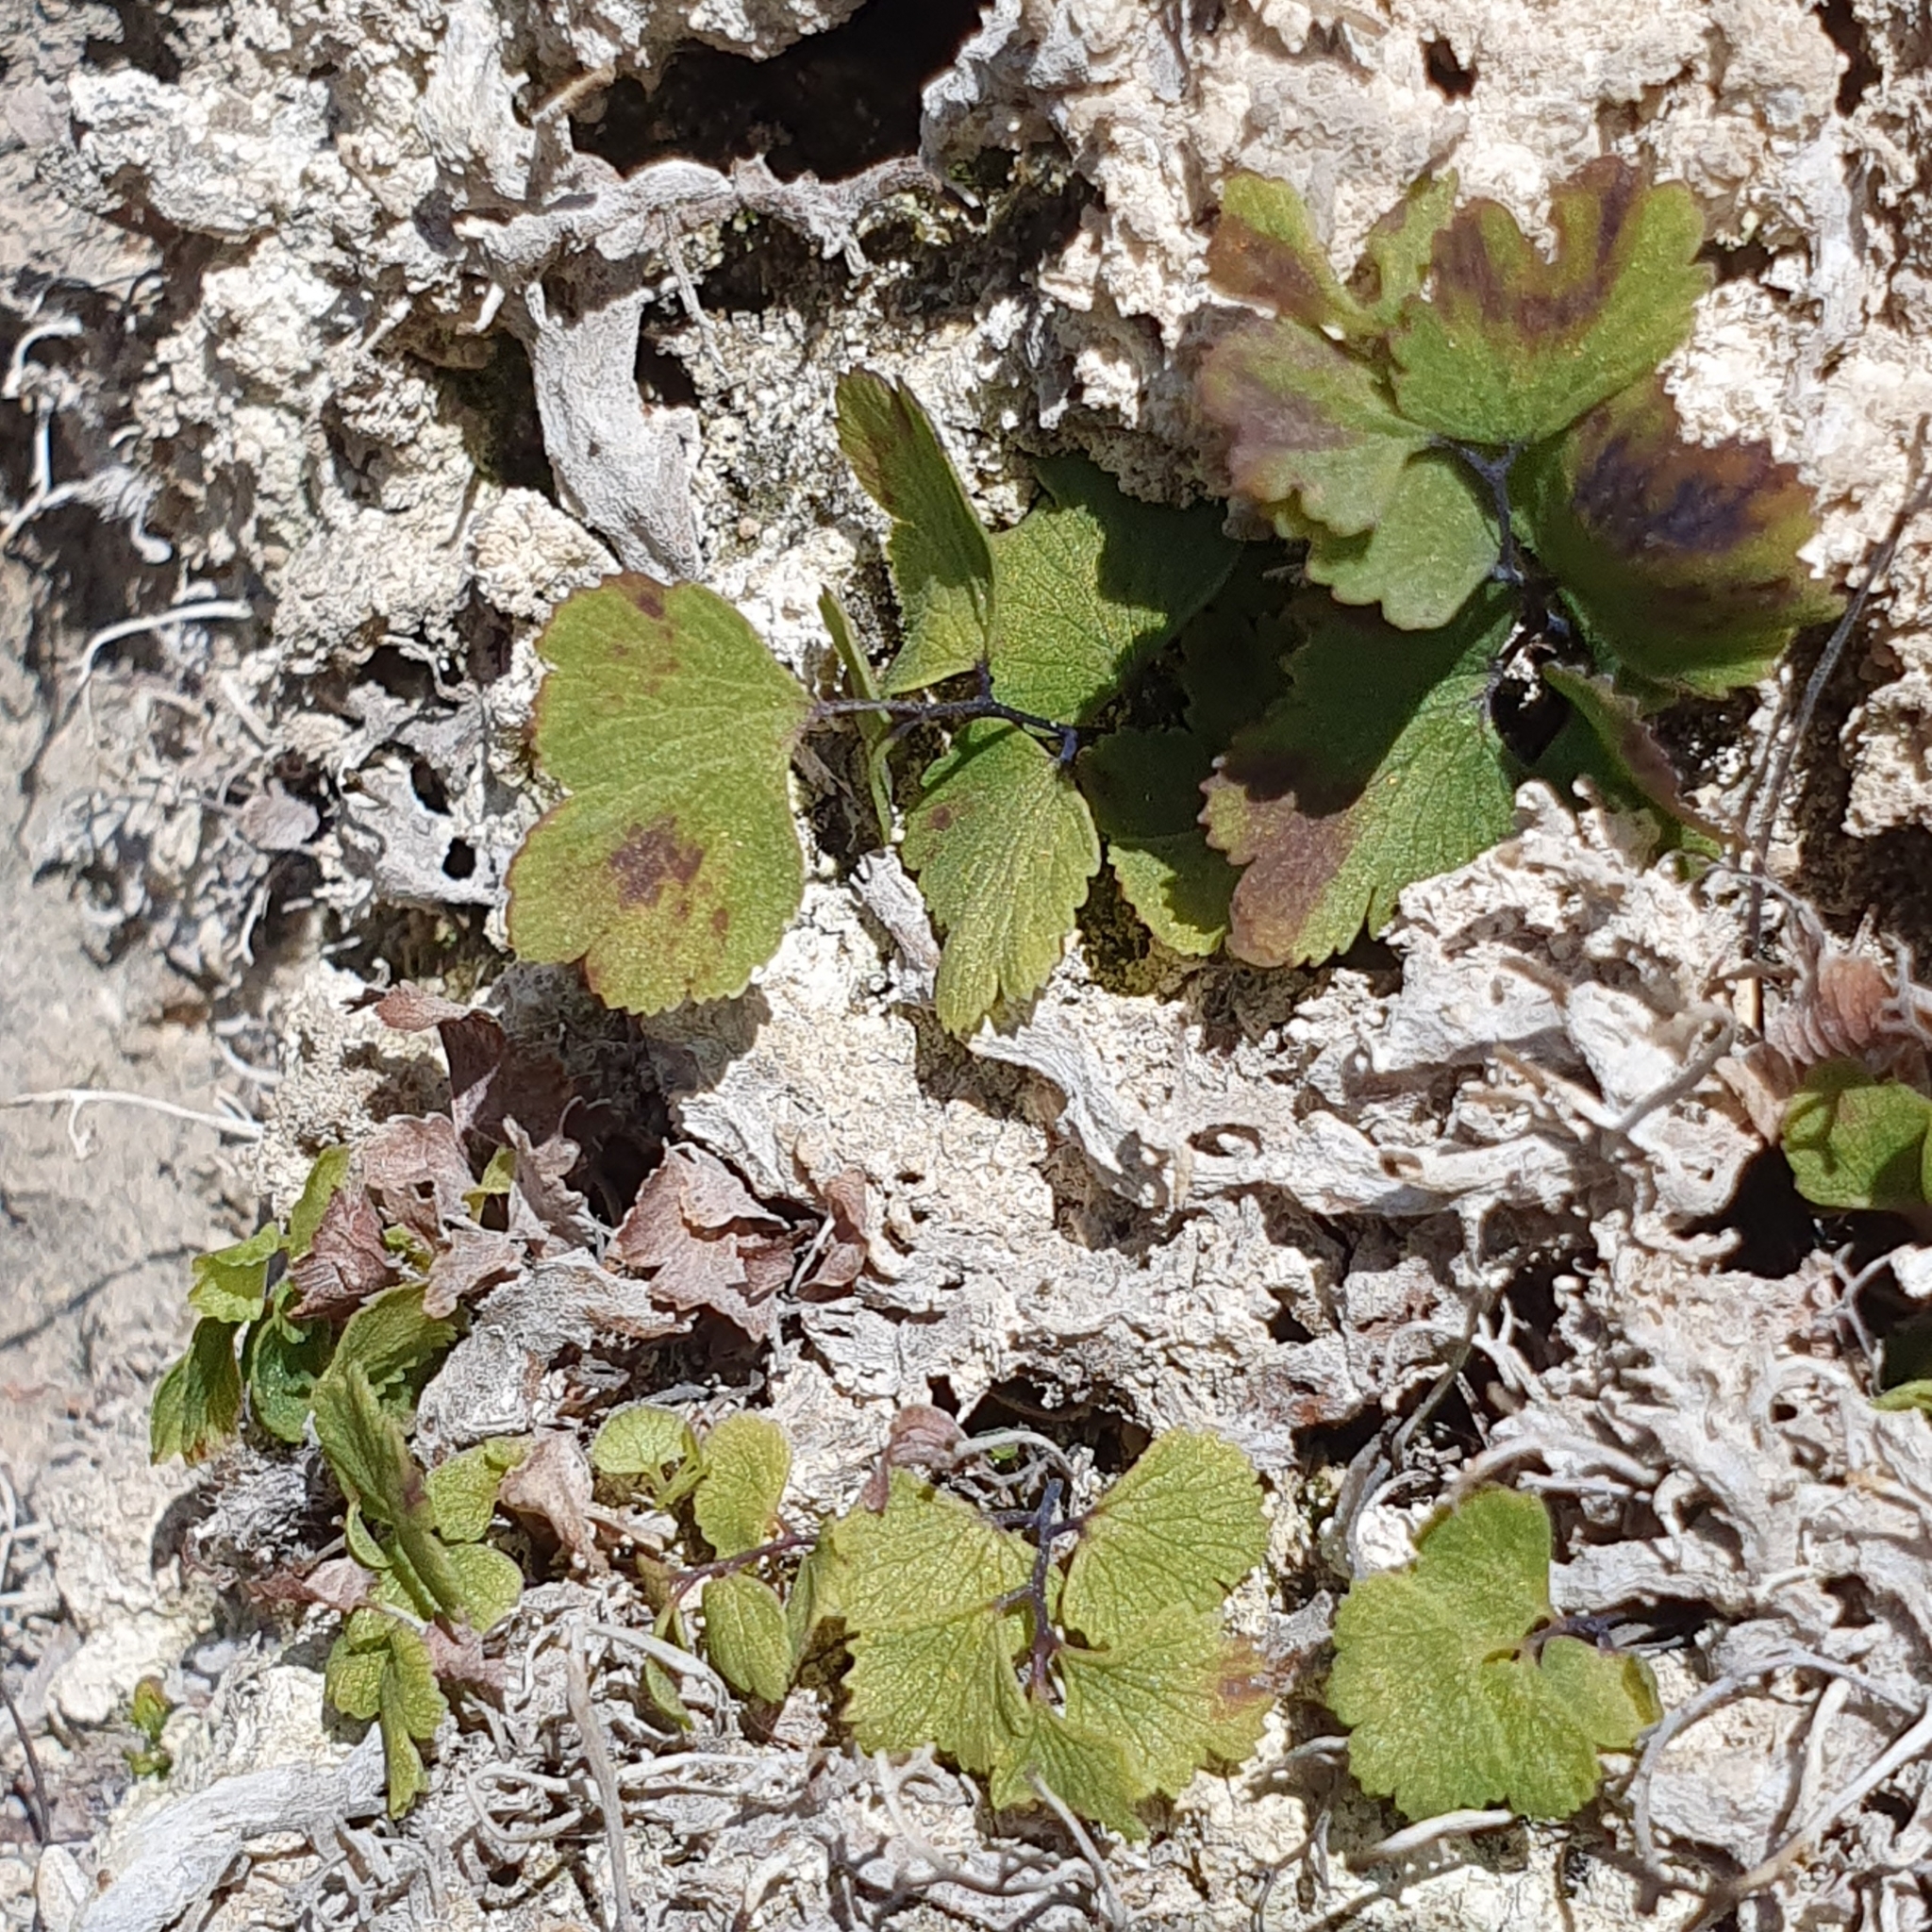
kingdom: Plantae
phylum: Tracheophyta
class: Polypodiopsida
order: Polypodiales
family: Pteridaceae
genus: Adiantum
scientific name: Adiantum capillus-veneris
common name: Maidenhair fern
